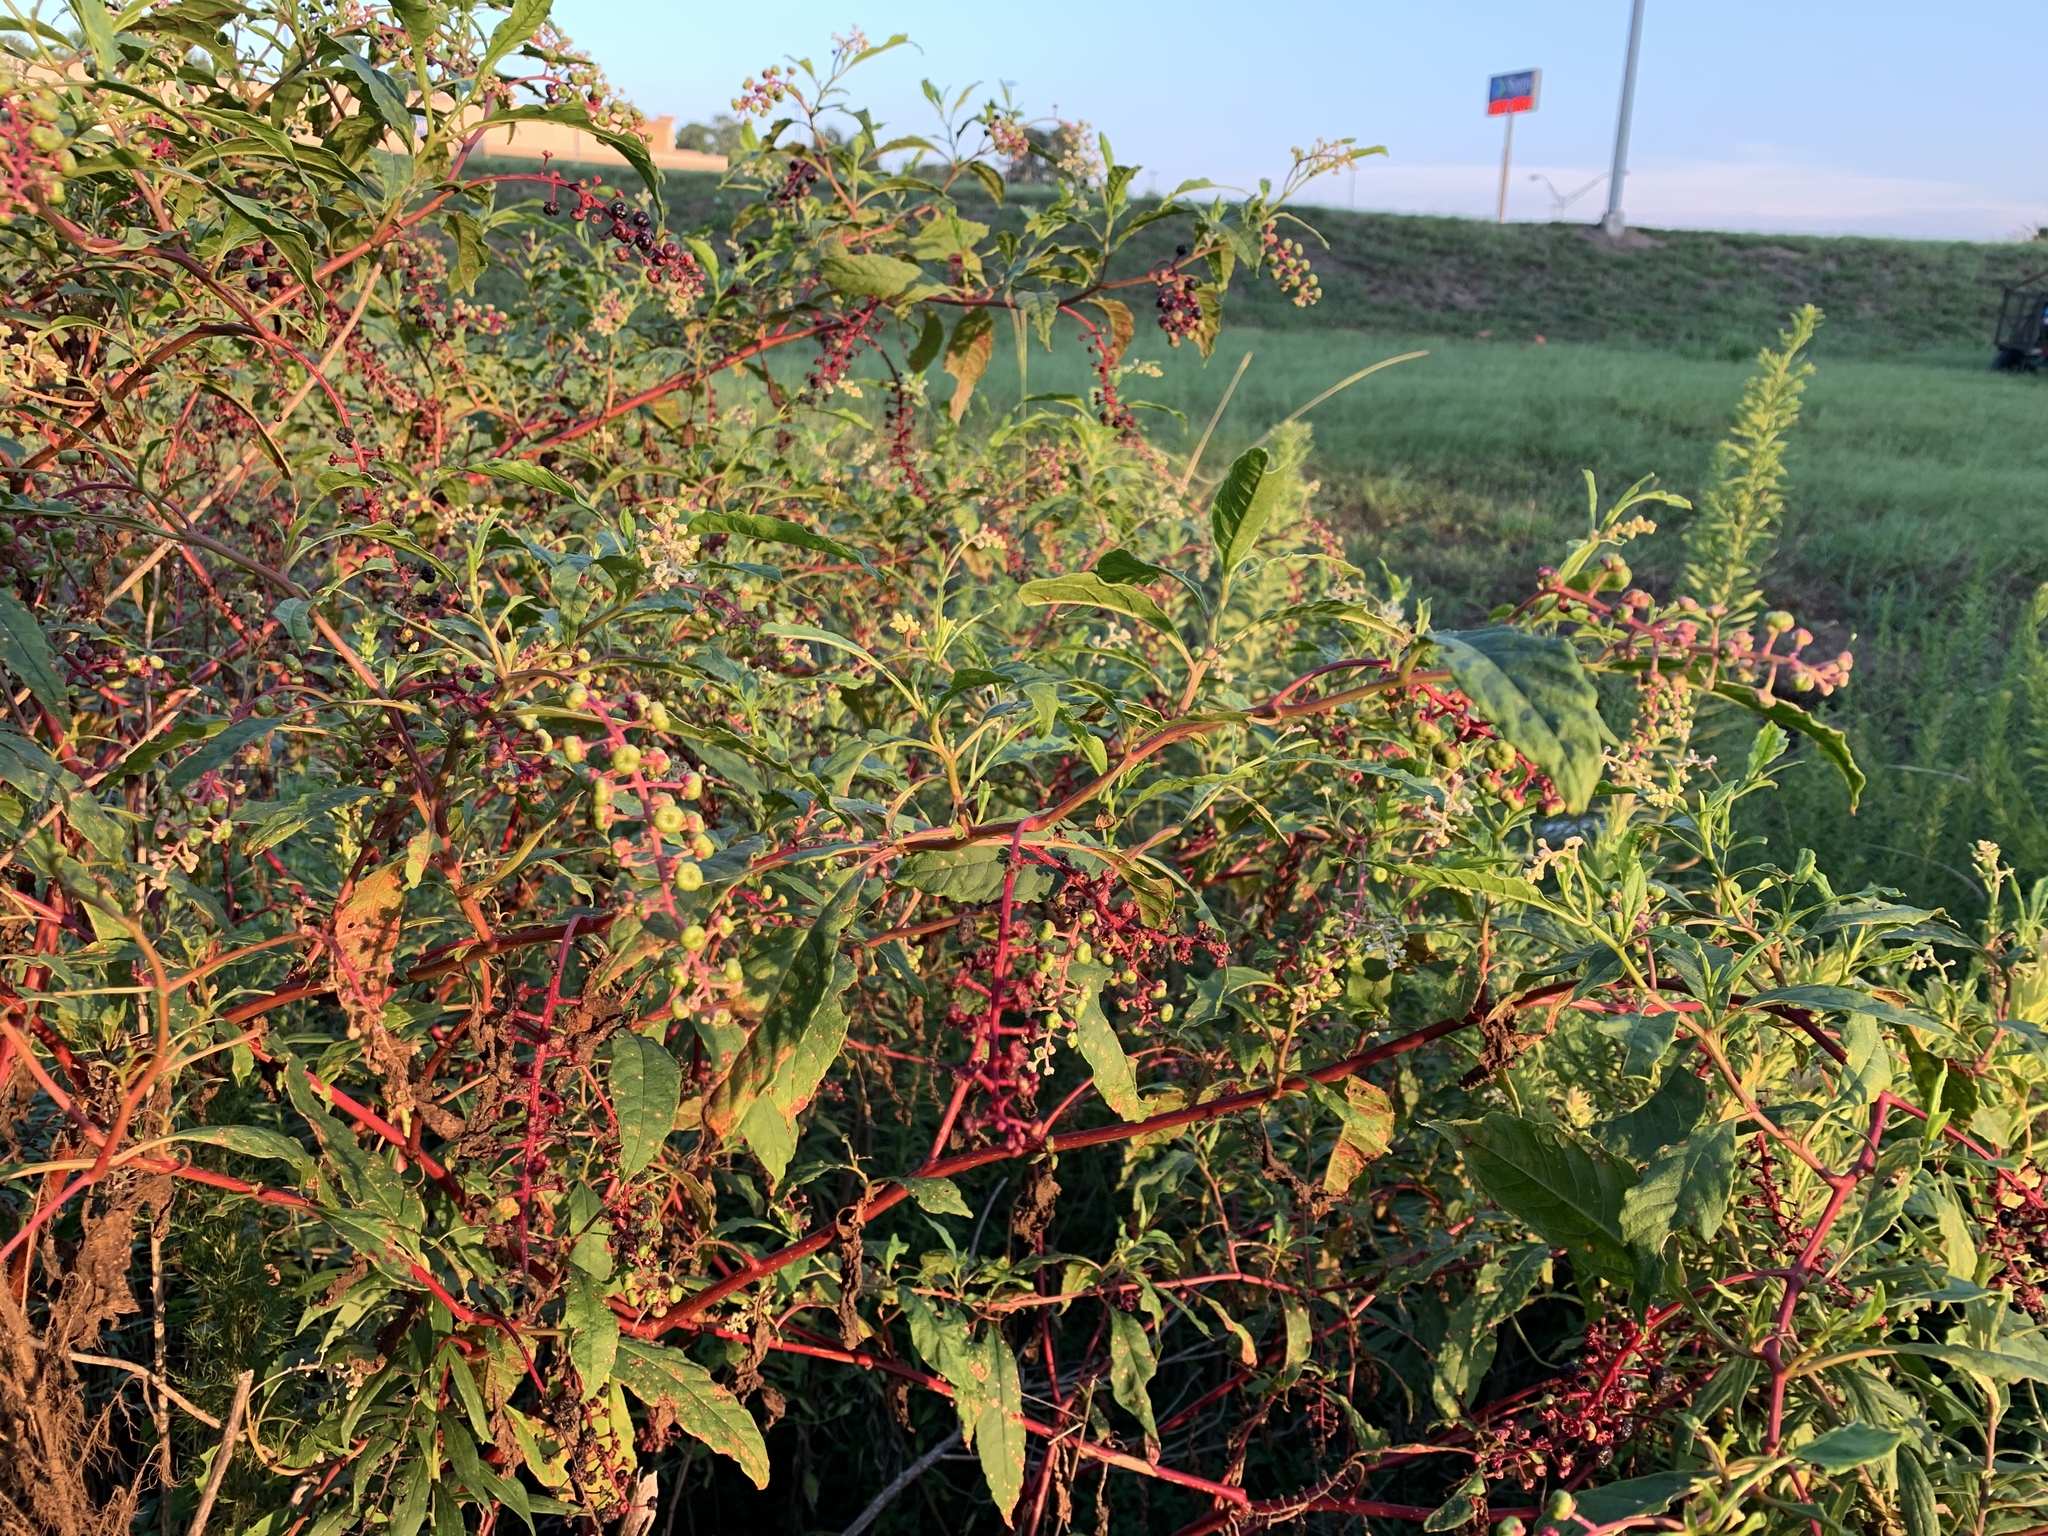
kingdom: Plantae
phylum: Tracheophyta
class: Magnoliopsida
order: Caryophyllales
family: Phytolaccaceae
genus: Phytolacca
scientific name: Phytolacca americana
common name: American pokeweed
